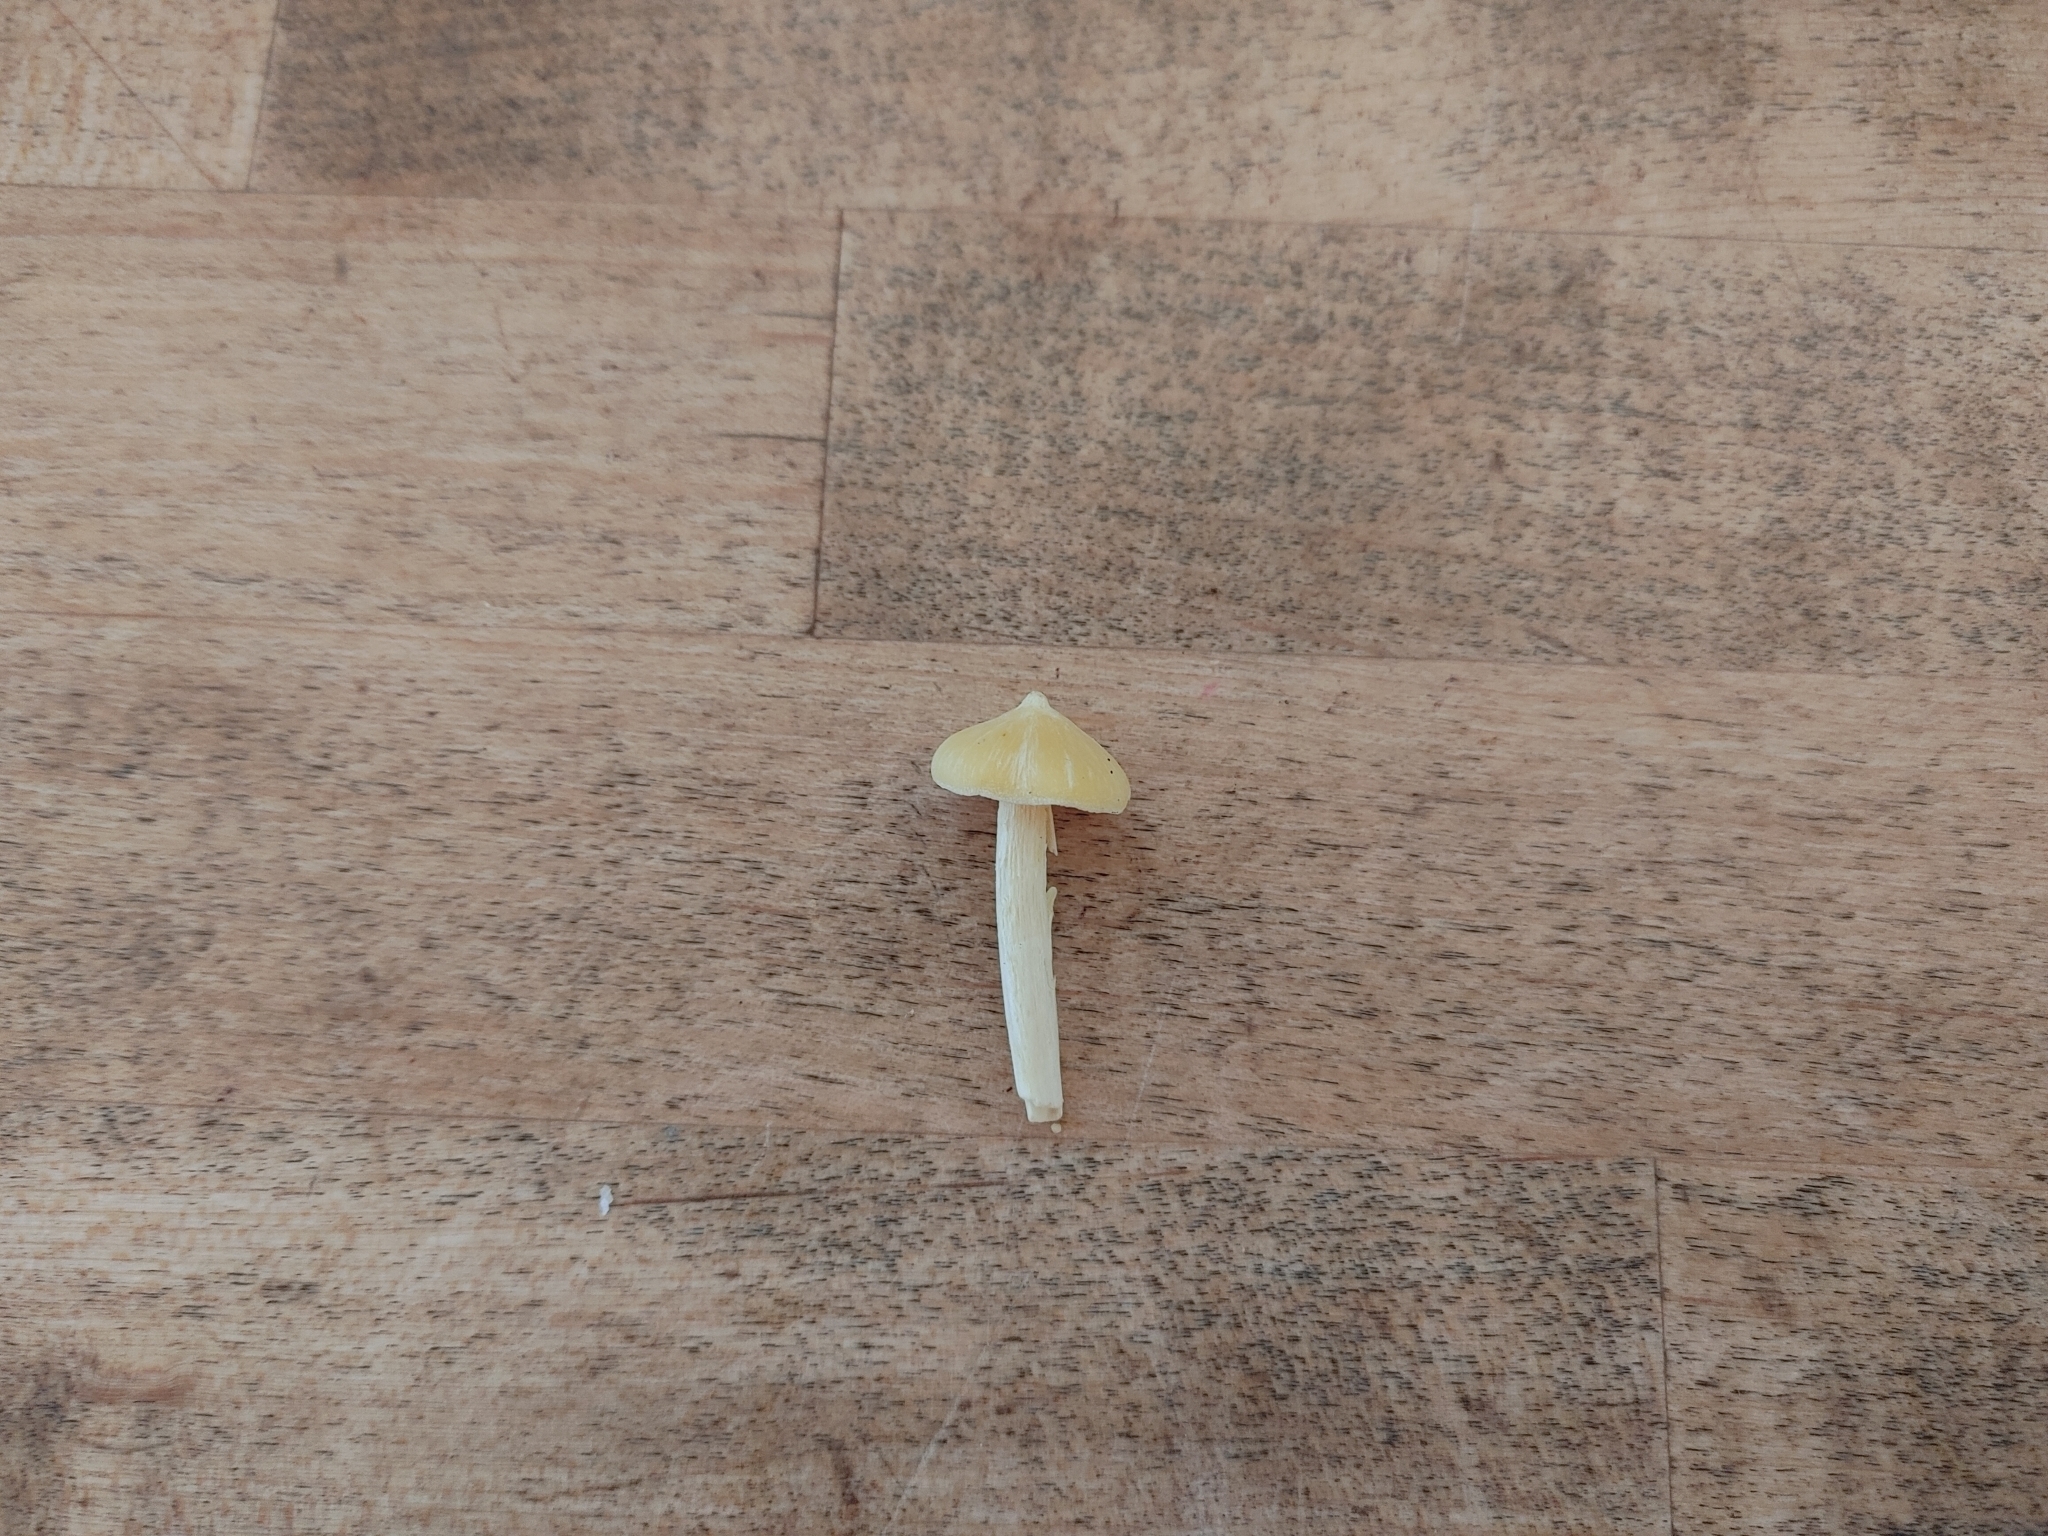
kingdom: Fungi
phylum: Basidiomycota
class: Agaricomycetes
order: Agaricales
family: Entolomataceae
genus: Entoloma
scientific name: Entoloma murrayi
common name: Yellow unicorn entoloma
